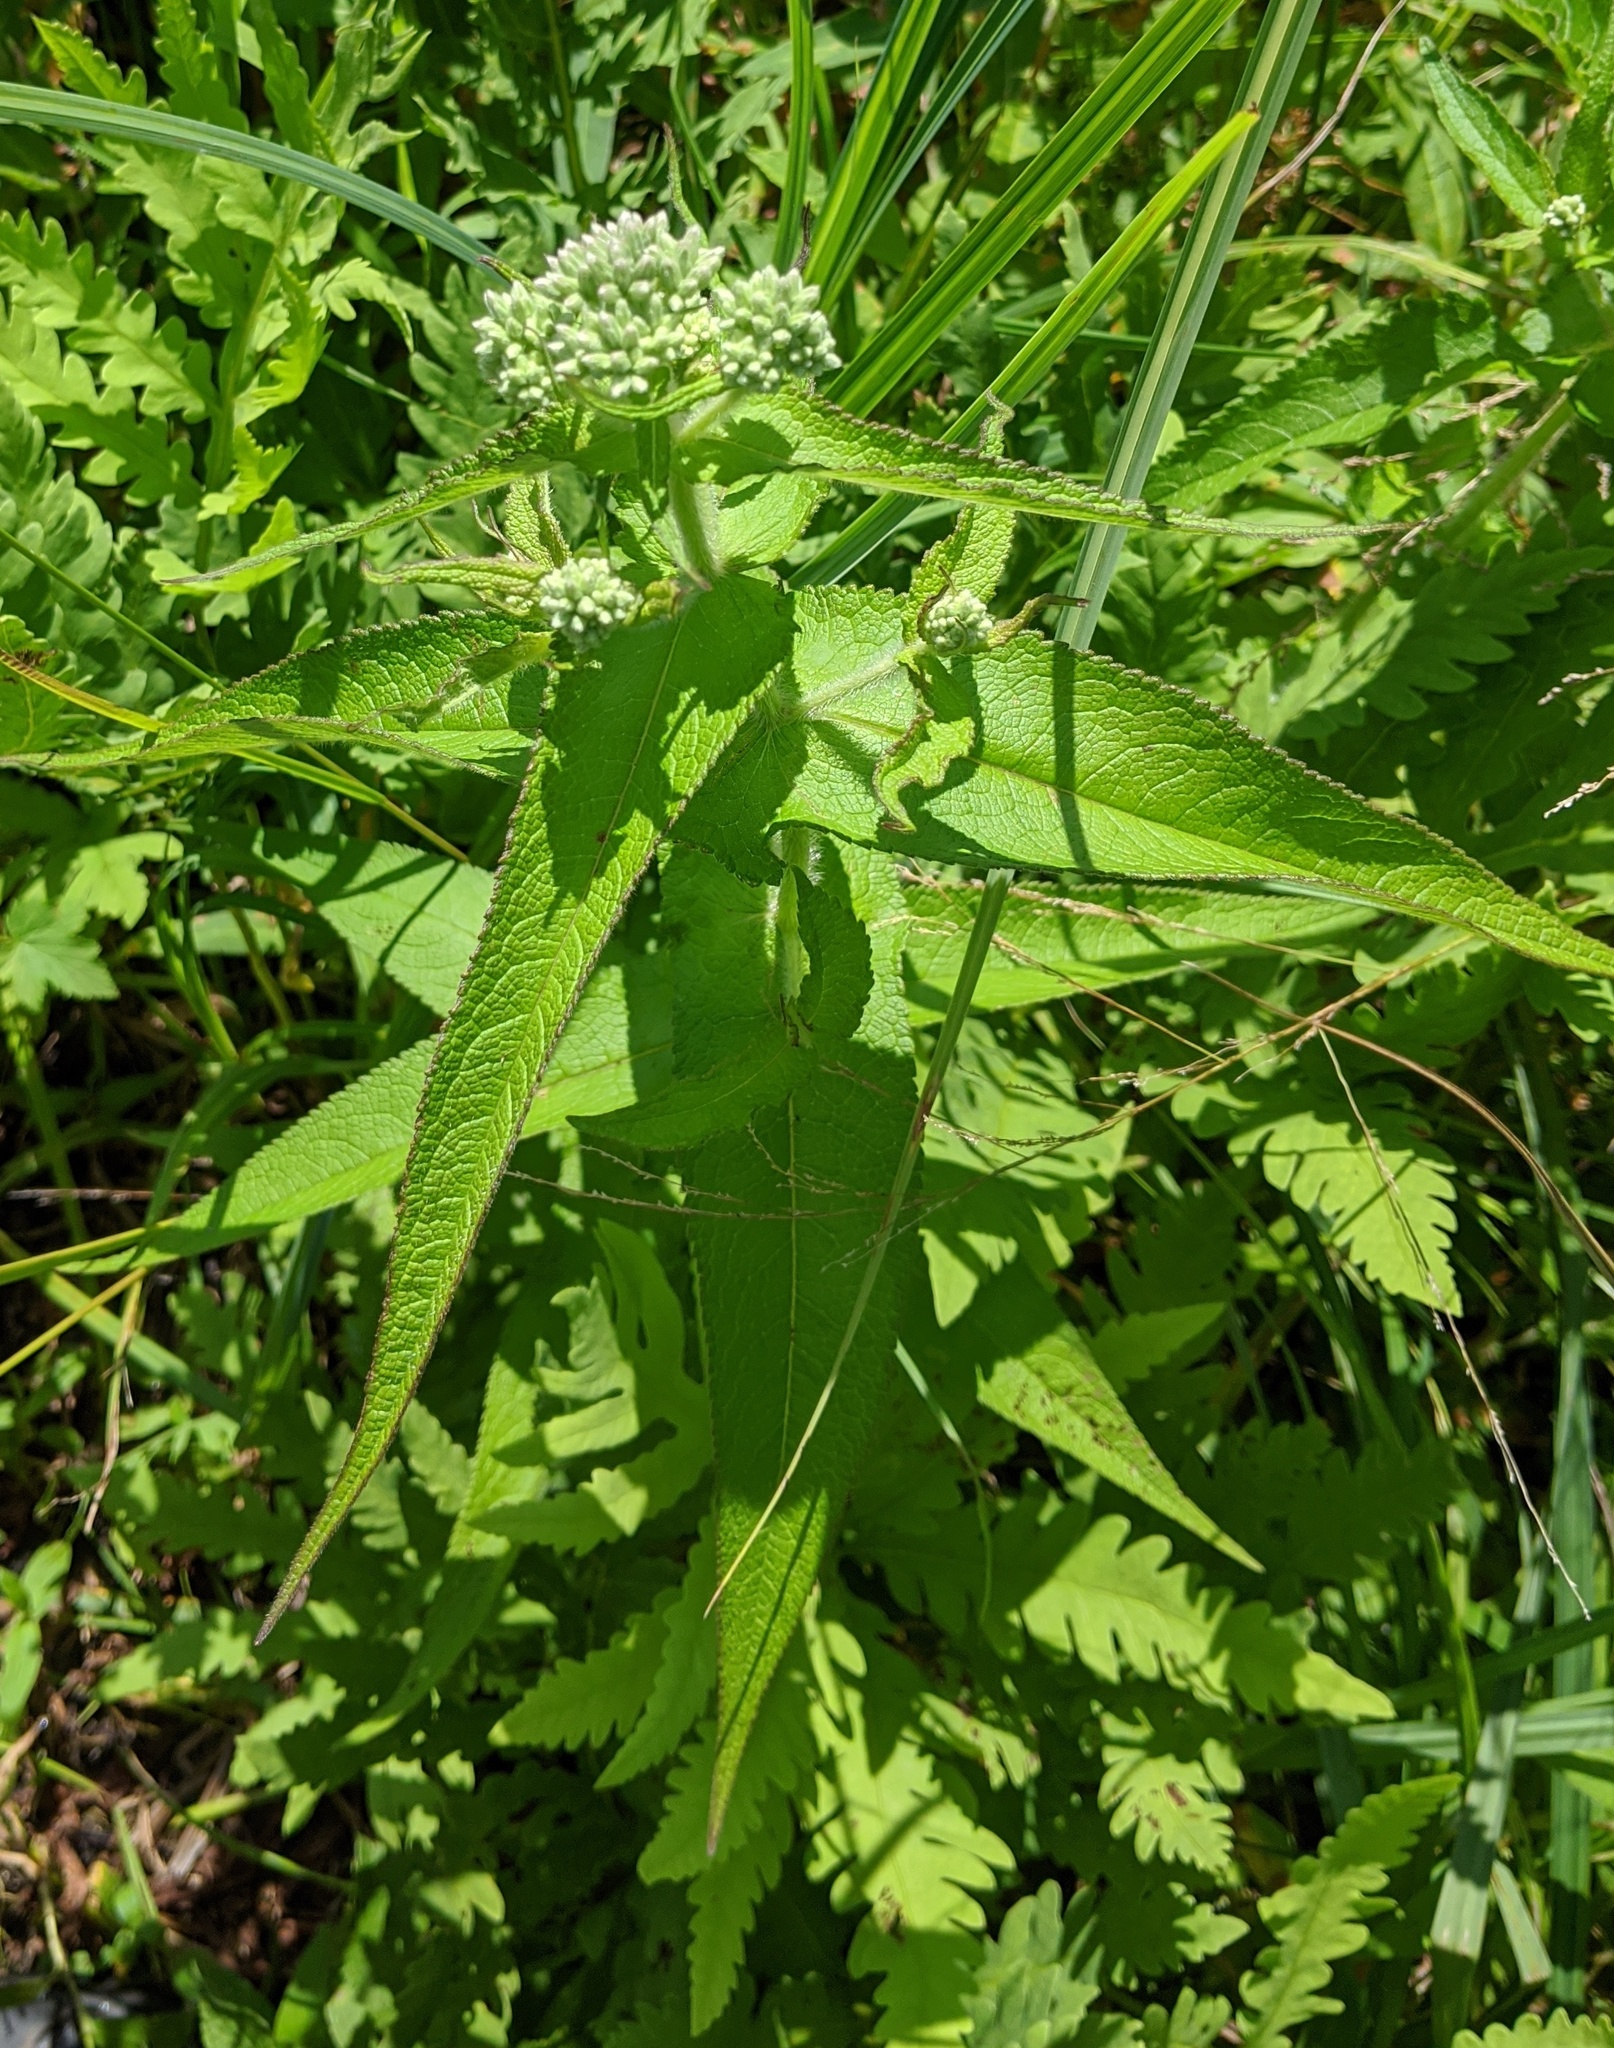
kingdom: Plantae
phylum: Tracheophyta
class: Magnoliopsida
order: Asterales
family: Asteraceae
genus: Eupatorium
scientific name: Eupatorium perfoliatum
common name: Boneset
